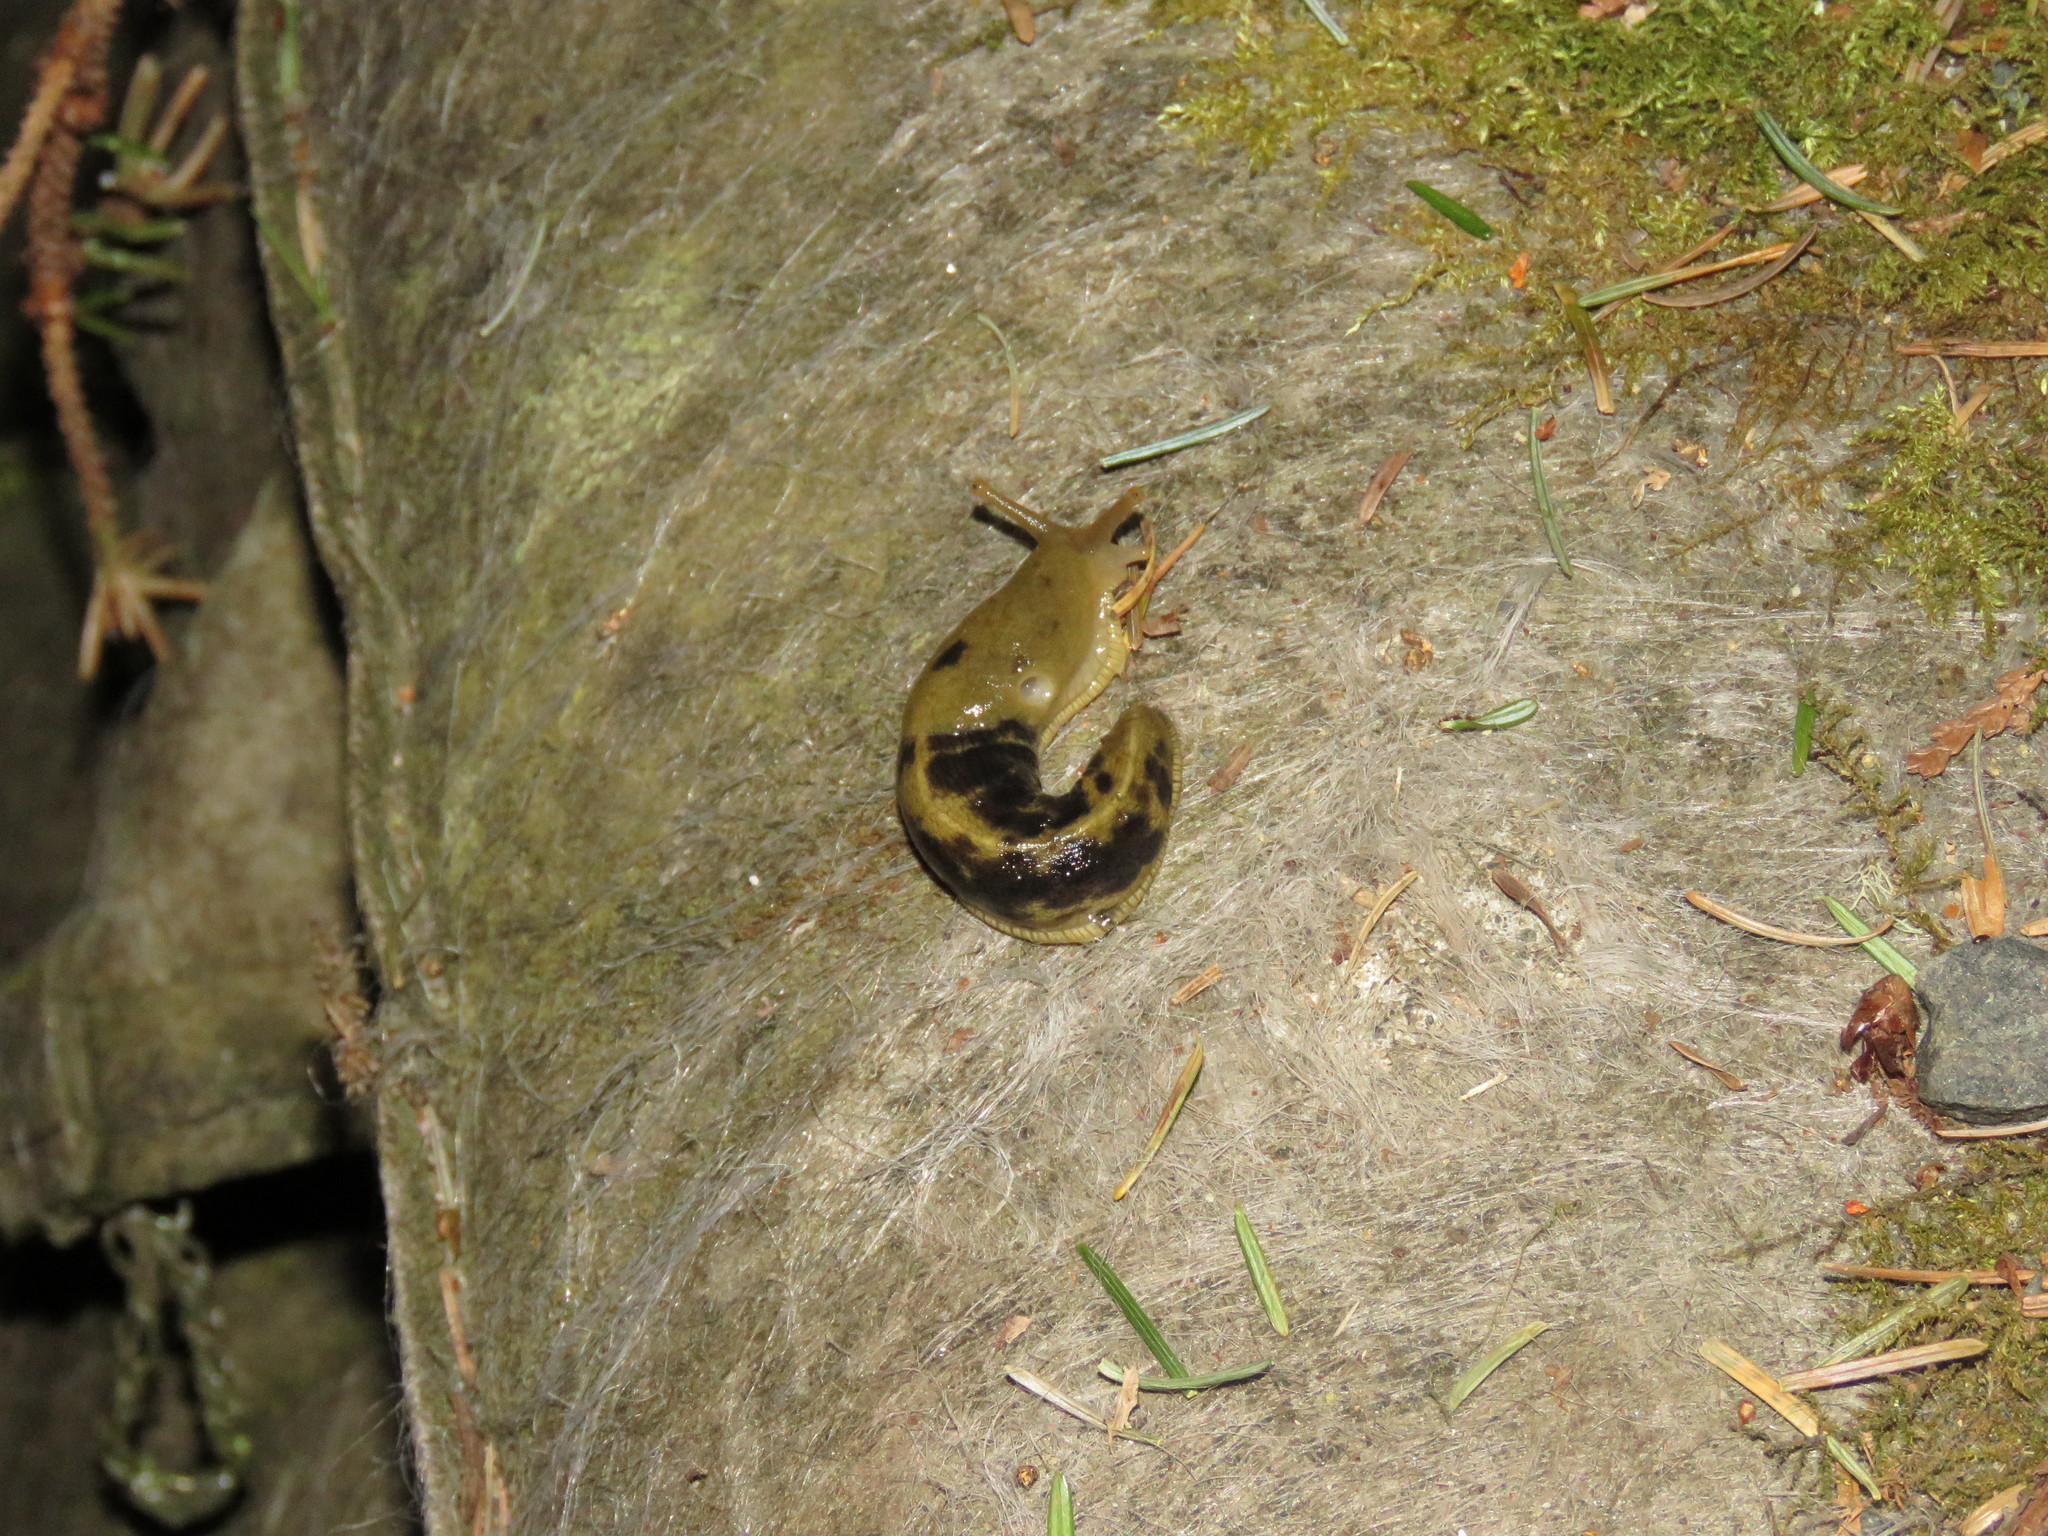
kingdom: Animalia
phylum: Mollusca
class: Gastropoda
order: Stylommatophora
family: Ariolimacidae
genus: Ariolimax
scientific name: Ariolimax columbianus
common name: Pacific banana slug
